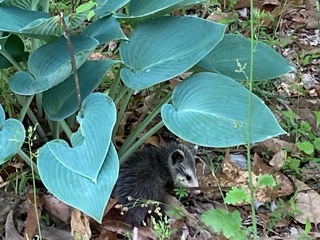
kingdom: Animalia
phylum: Chordata
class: Mammalia
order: Didelphimorphia
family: Didelphidae
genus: Didelphis
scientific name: Didelphis virginiana
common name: Virginia opossum
